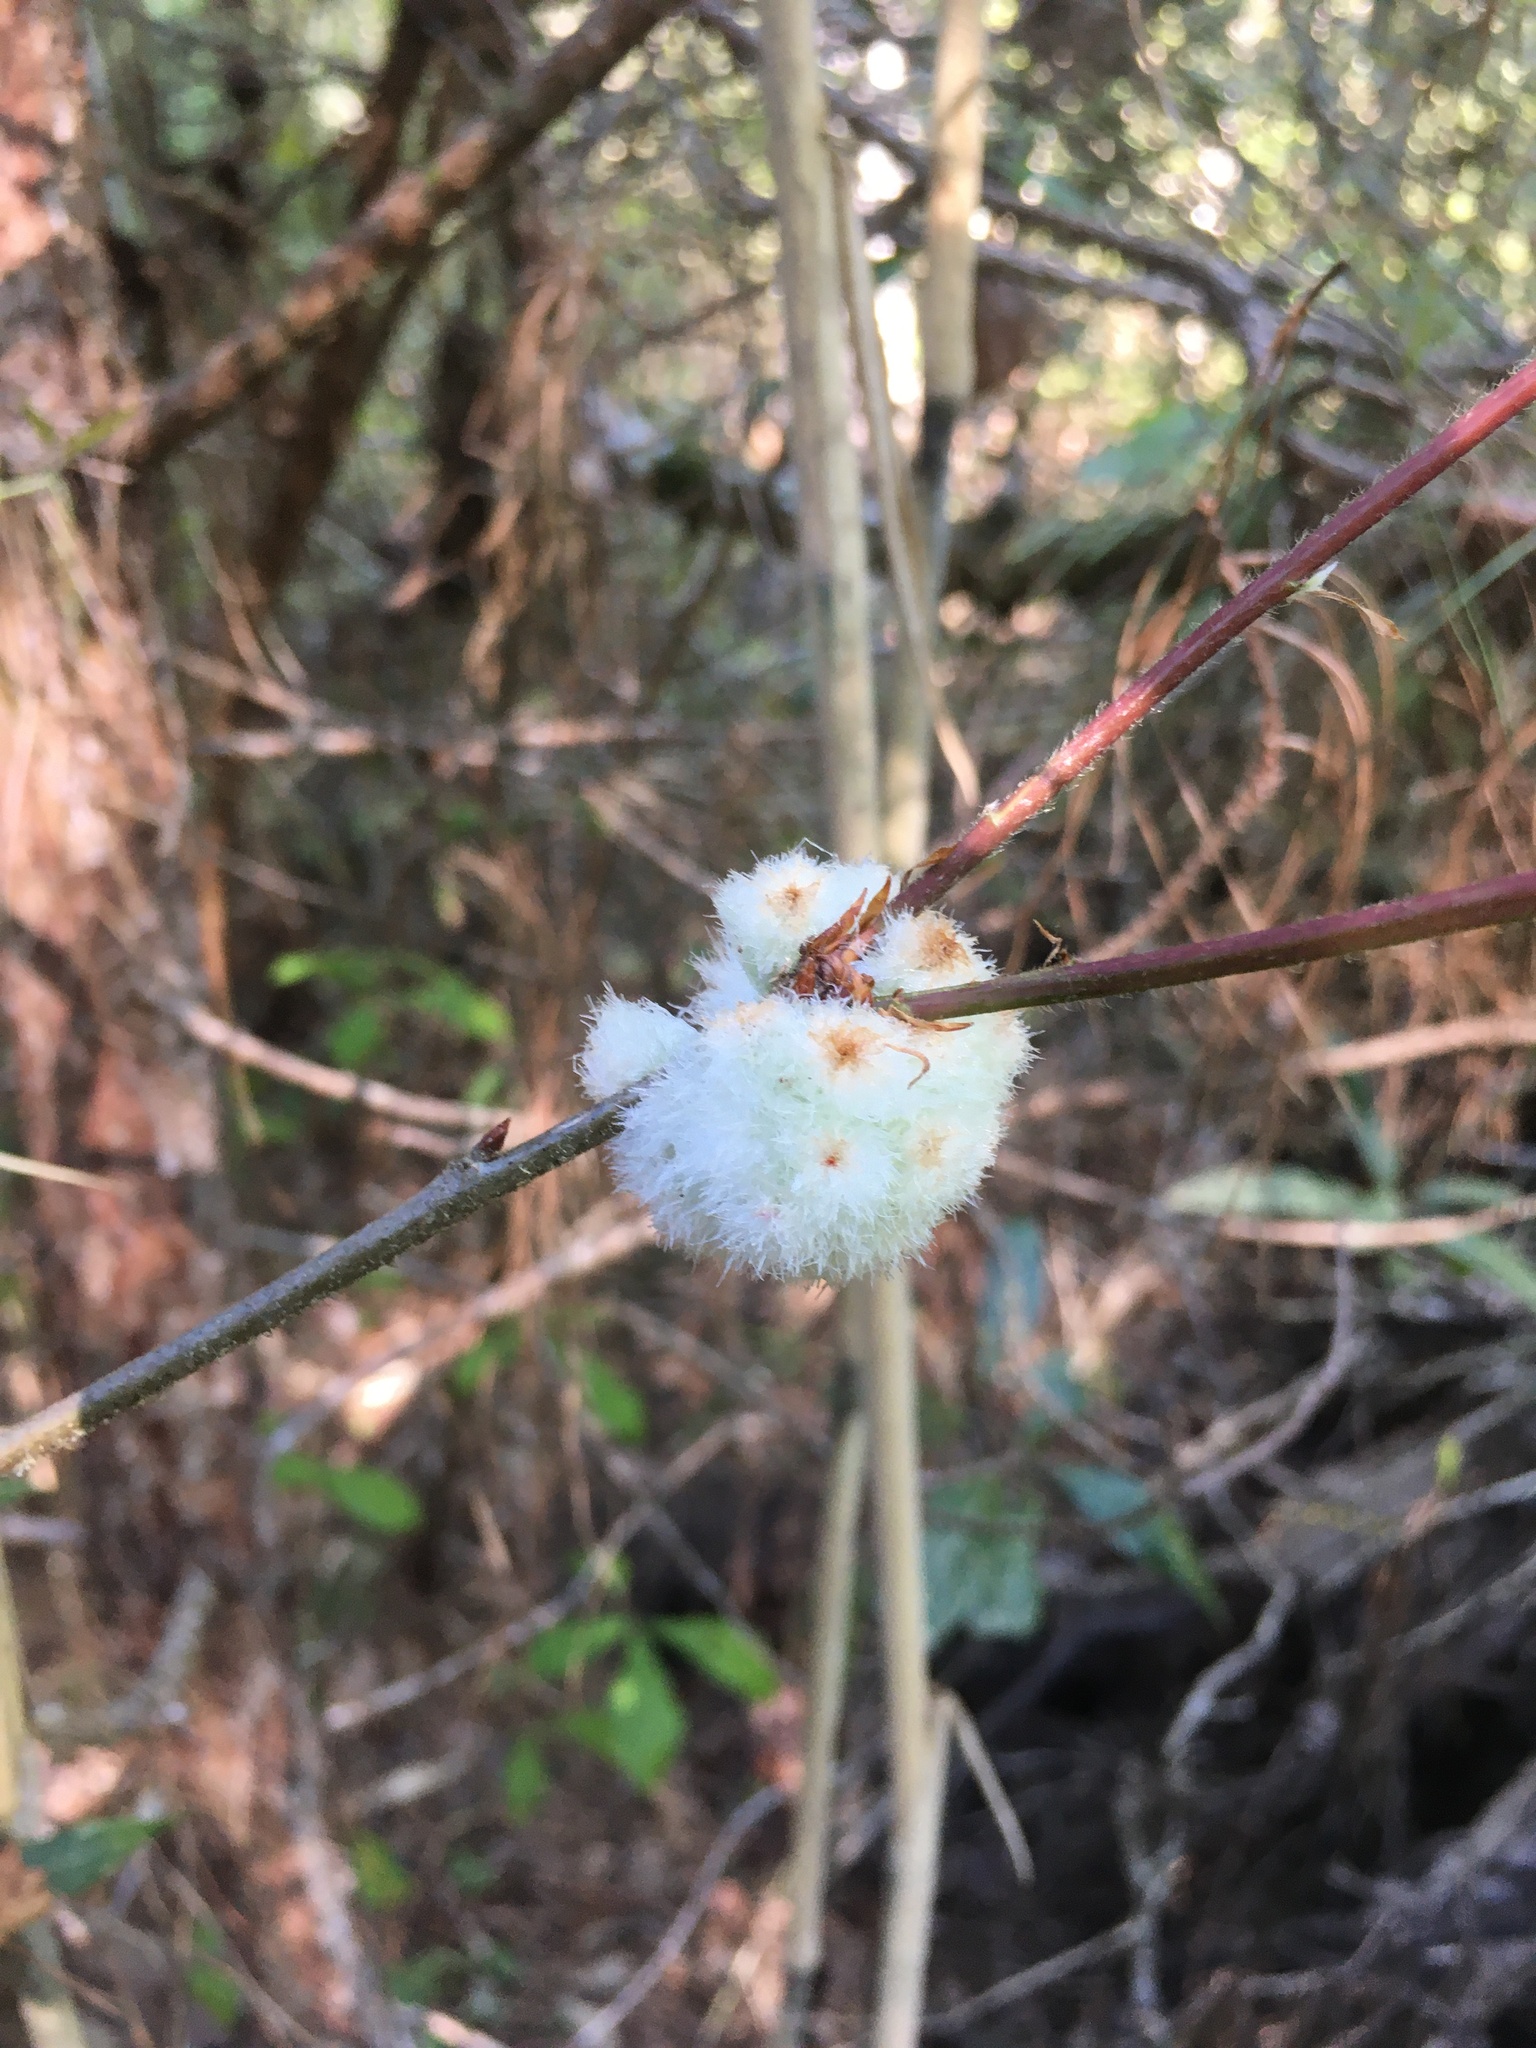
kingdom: Animalia
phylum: Arthropoda
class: Insecta
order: Hymenoptera
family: Cynipidae
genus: Callirhytis
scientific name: Callirhytis
